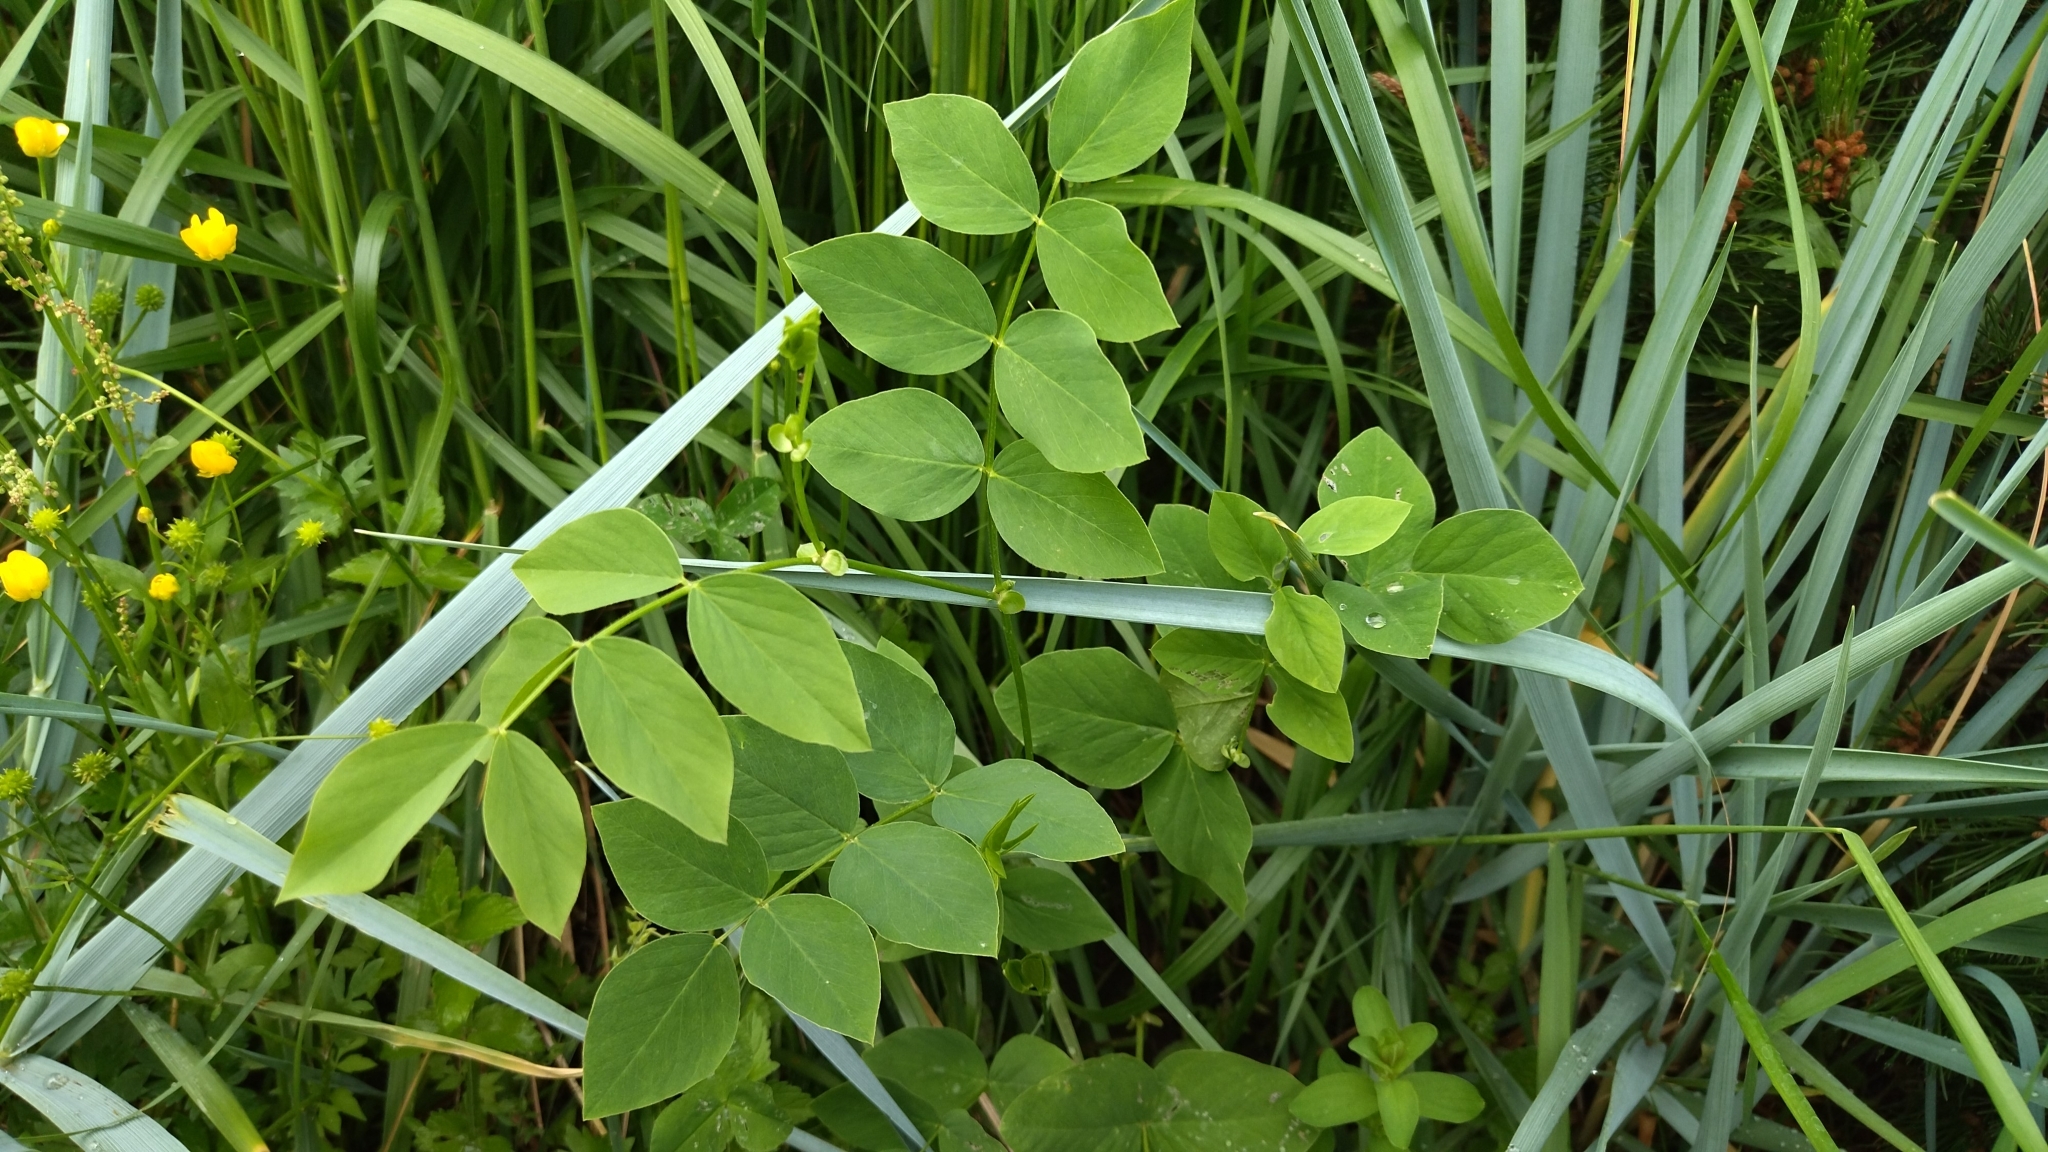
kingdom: Plantae
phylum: Tracheophyta
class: Magnoliopsida
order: Fabales
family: Fabaceae
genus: Galega
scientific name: Galega orientalis
